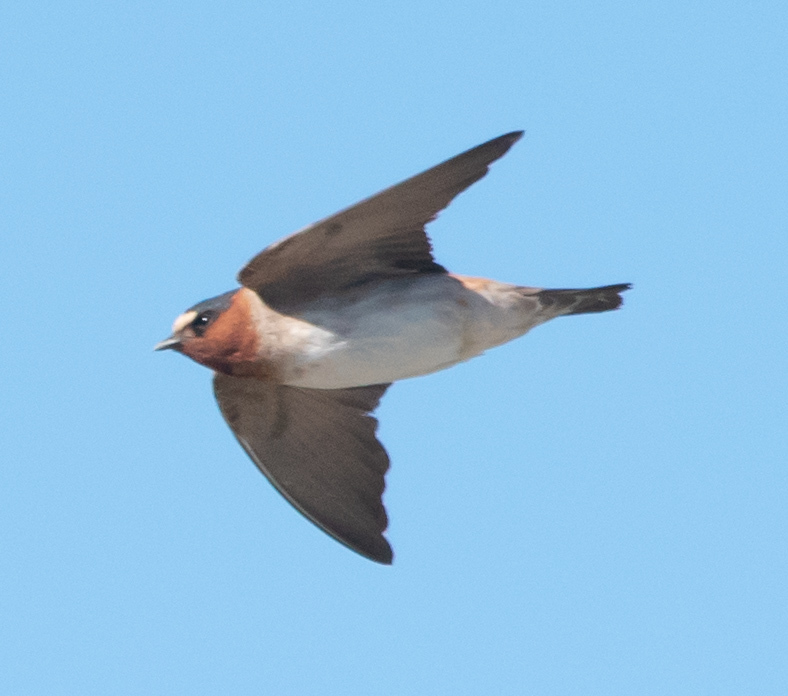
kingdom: Animalia
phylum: Chordata
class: Aves
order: Passeriformes
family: Hirundinidae
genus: Petrochelidon
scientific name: Petrochelidon pyrrhonota
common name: American cliff swallow
